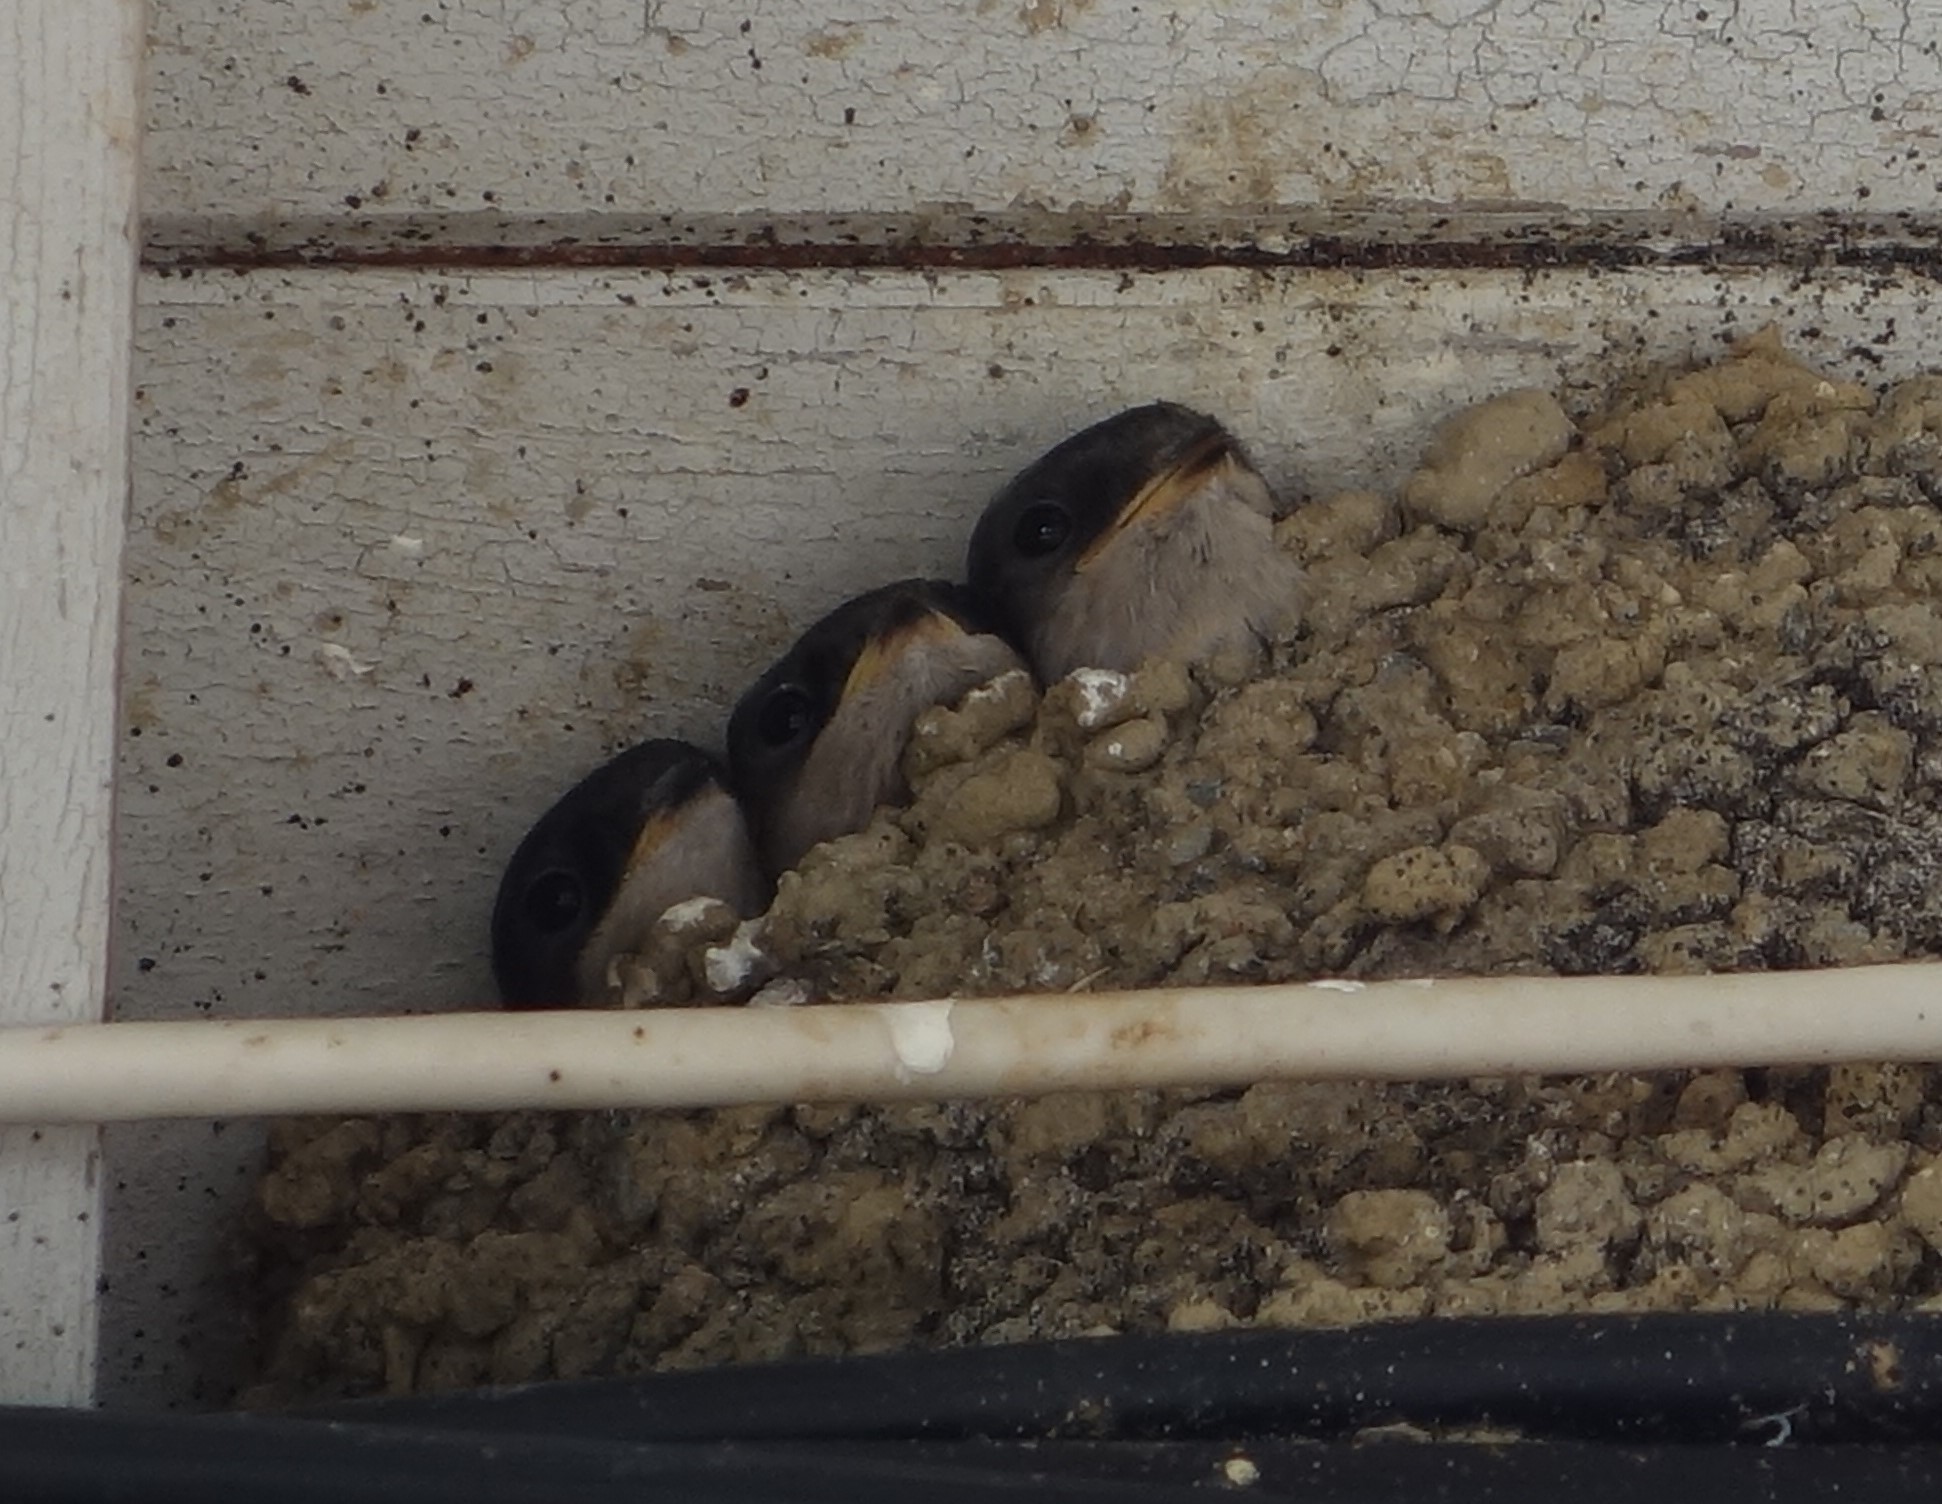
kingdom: Animalia
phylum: Chordata
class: Aves
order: Passeriformes
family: Hirundinidae
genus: Delichon
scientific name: Delichon urbicum
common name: Common house martin
